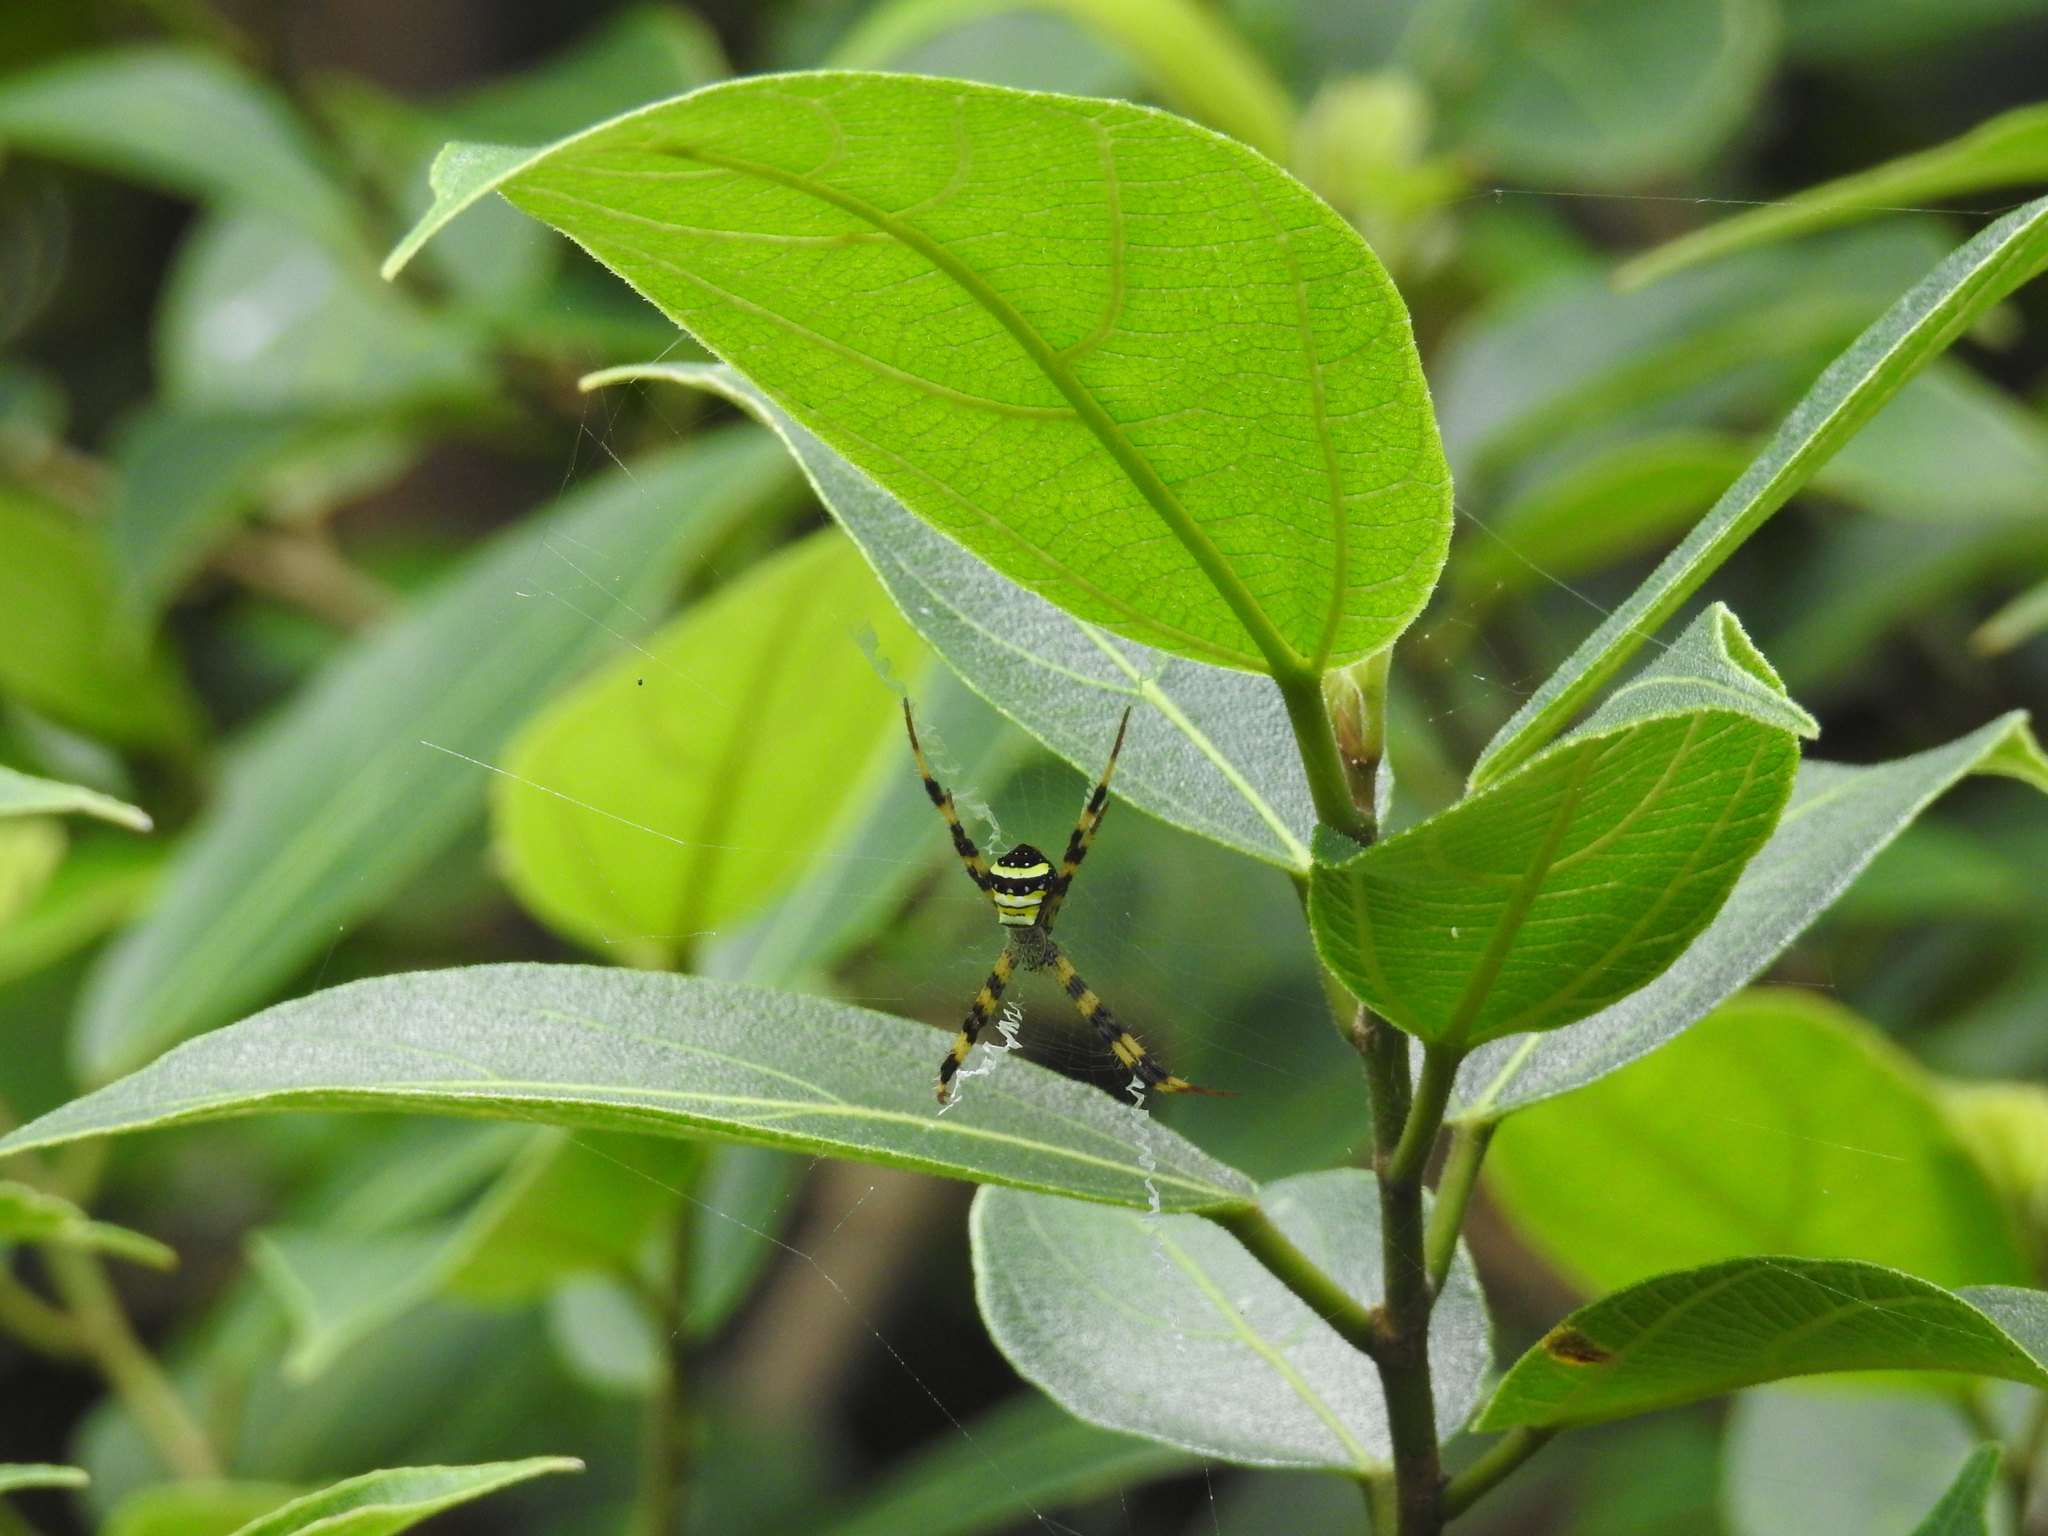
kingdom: Animalia
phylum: Arthropoda
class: Arachnida
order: Araneae
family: Araneidae
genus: Argiope
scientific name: Argiope pulchella
